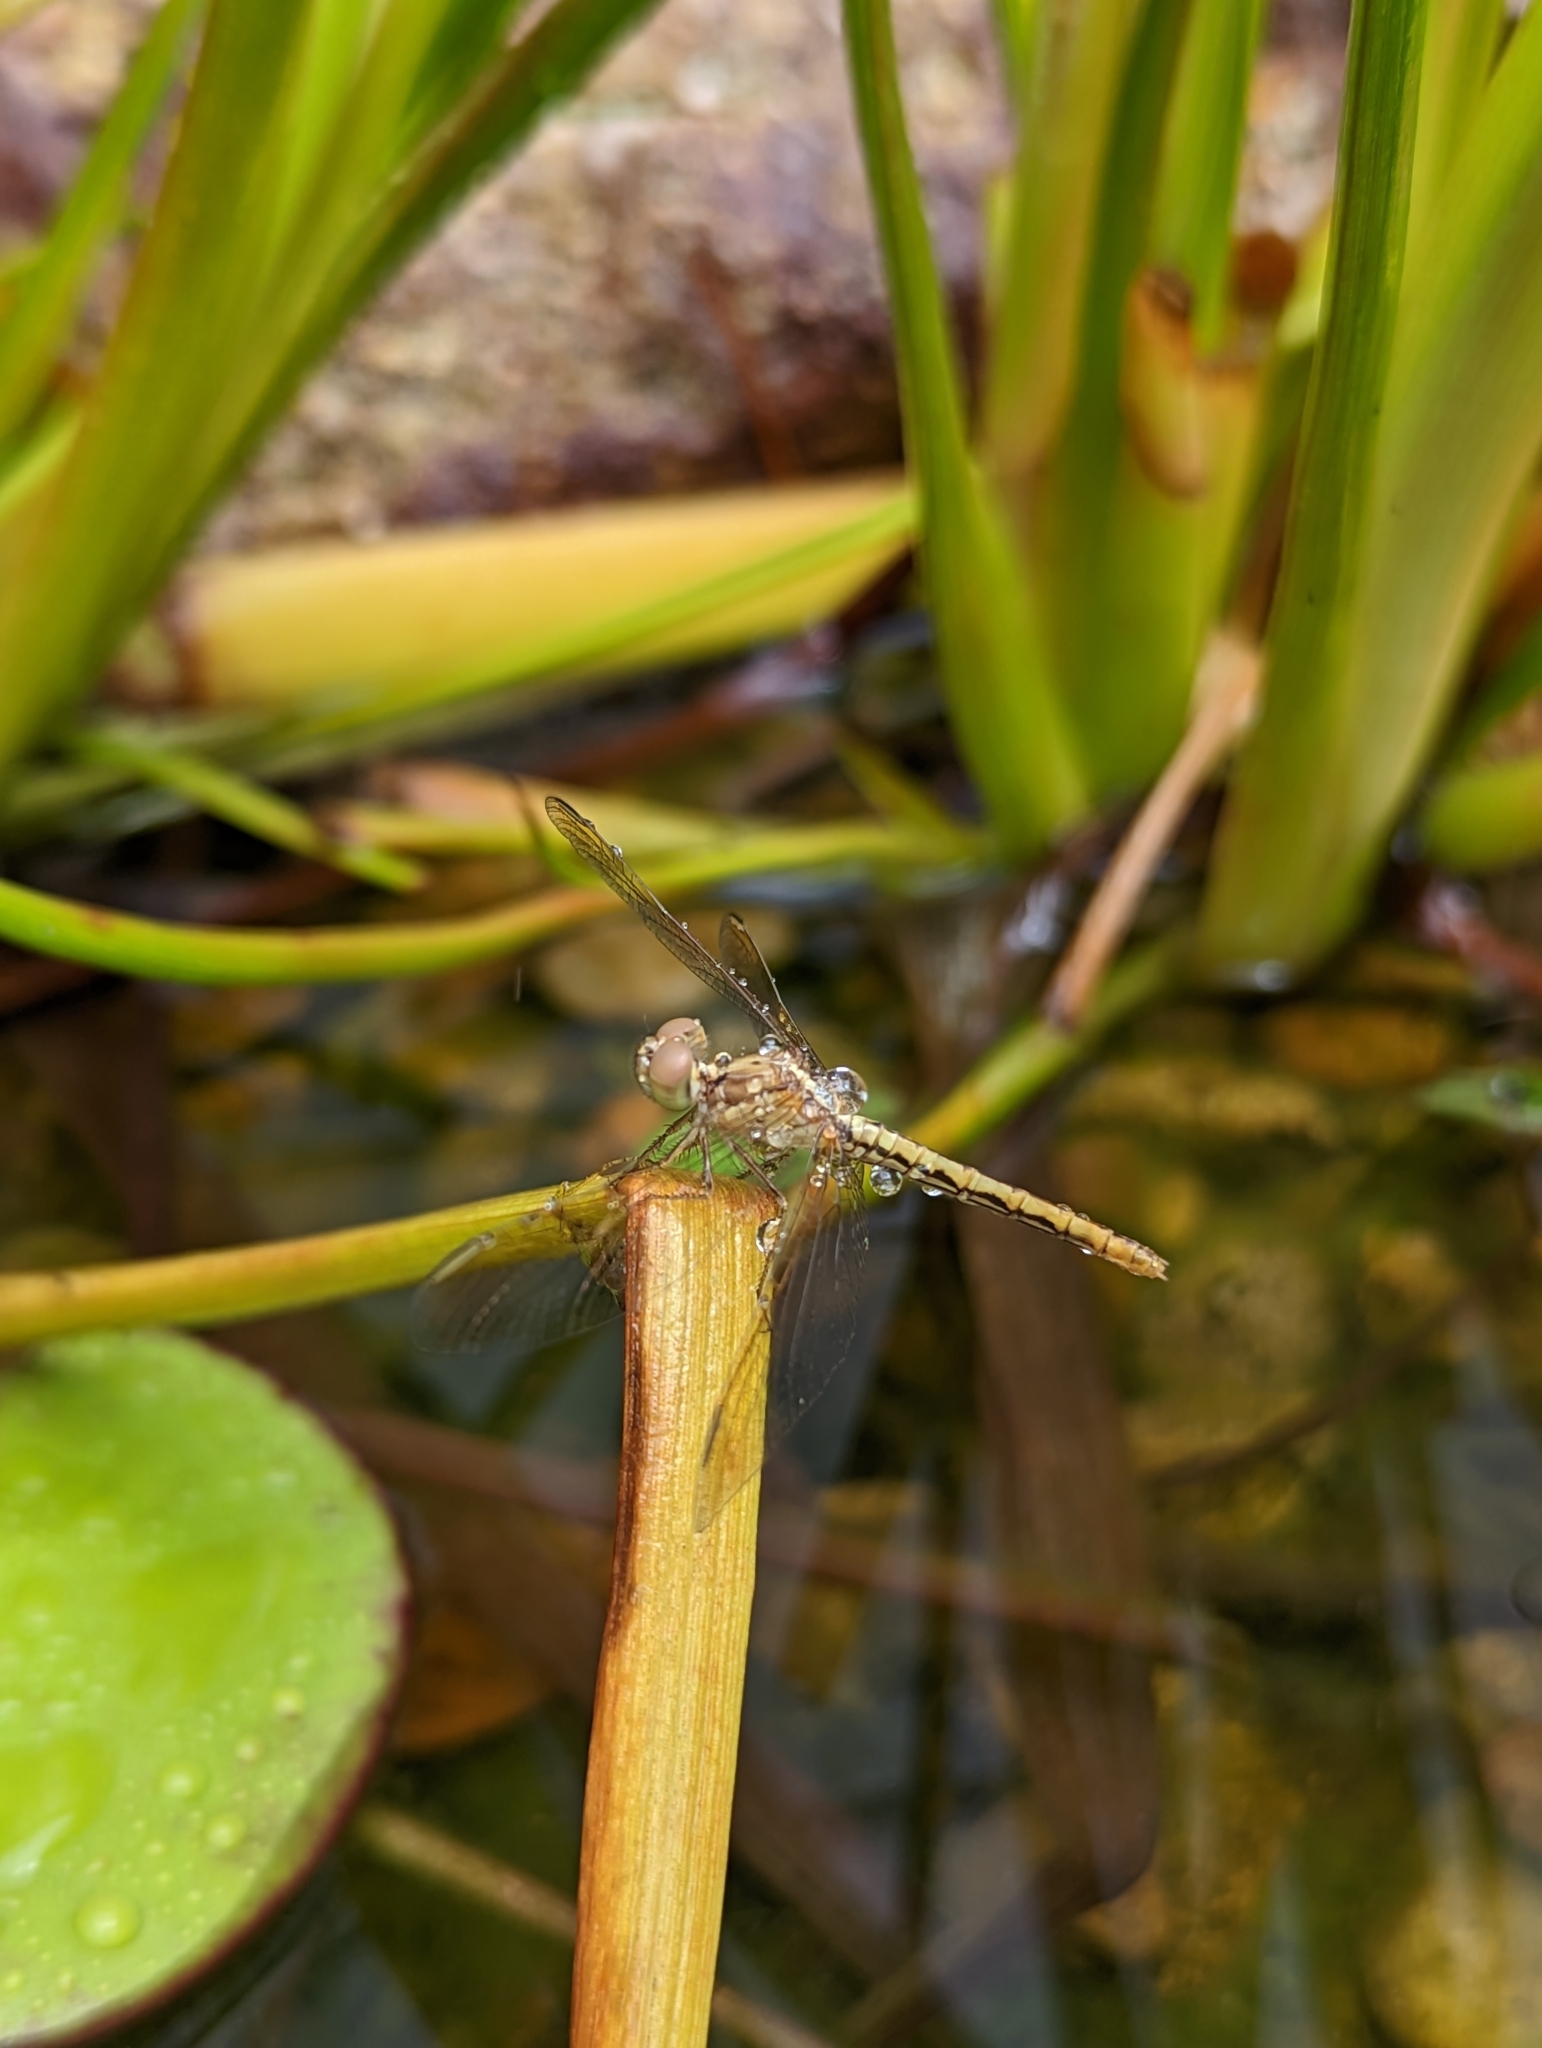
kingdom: Animalia
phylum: Arthropoda
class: Insecta
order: Odonata
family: Libellulidae
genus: Diplacodes
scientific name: Diplacodes haematodes
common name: Scarlet percher
